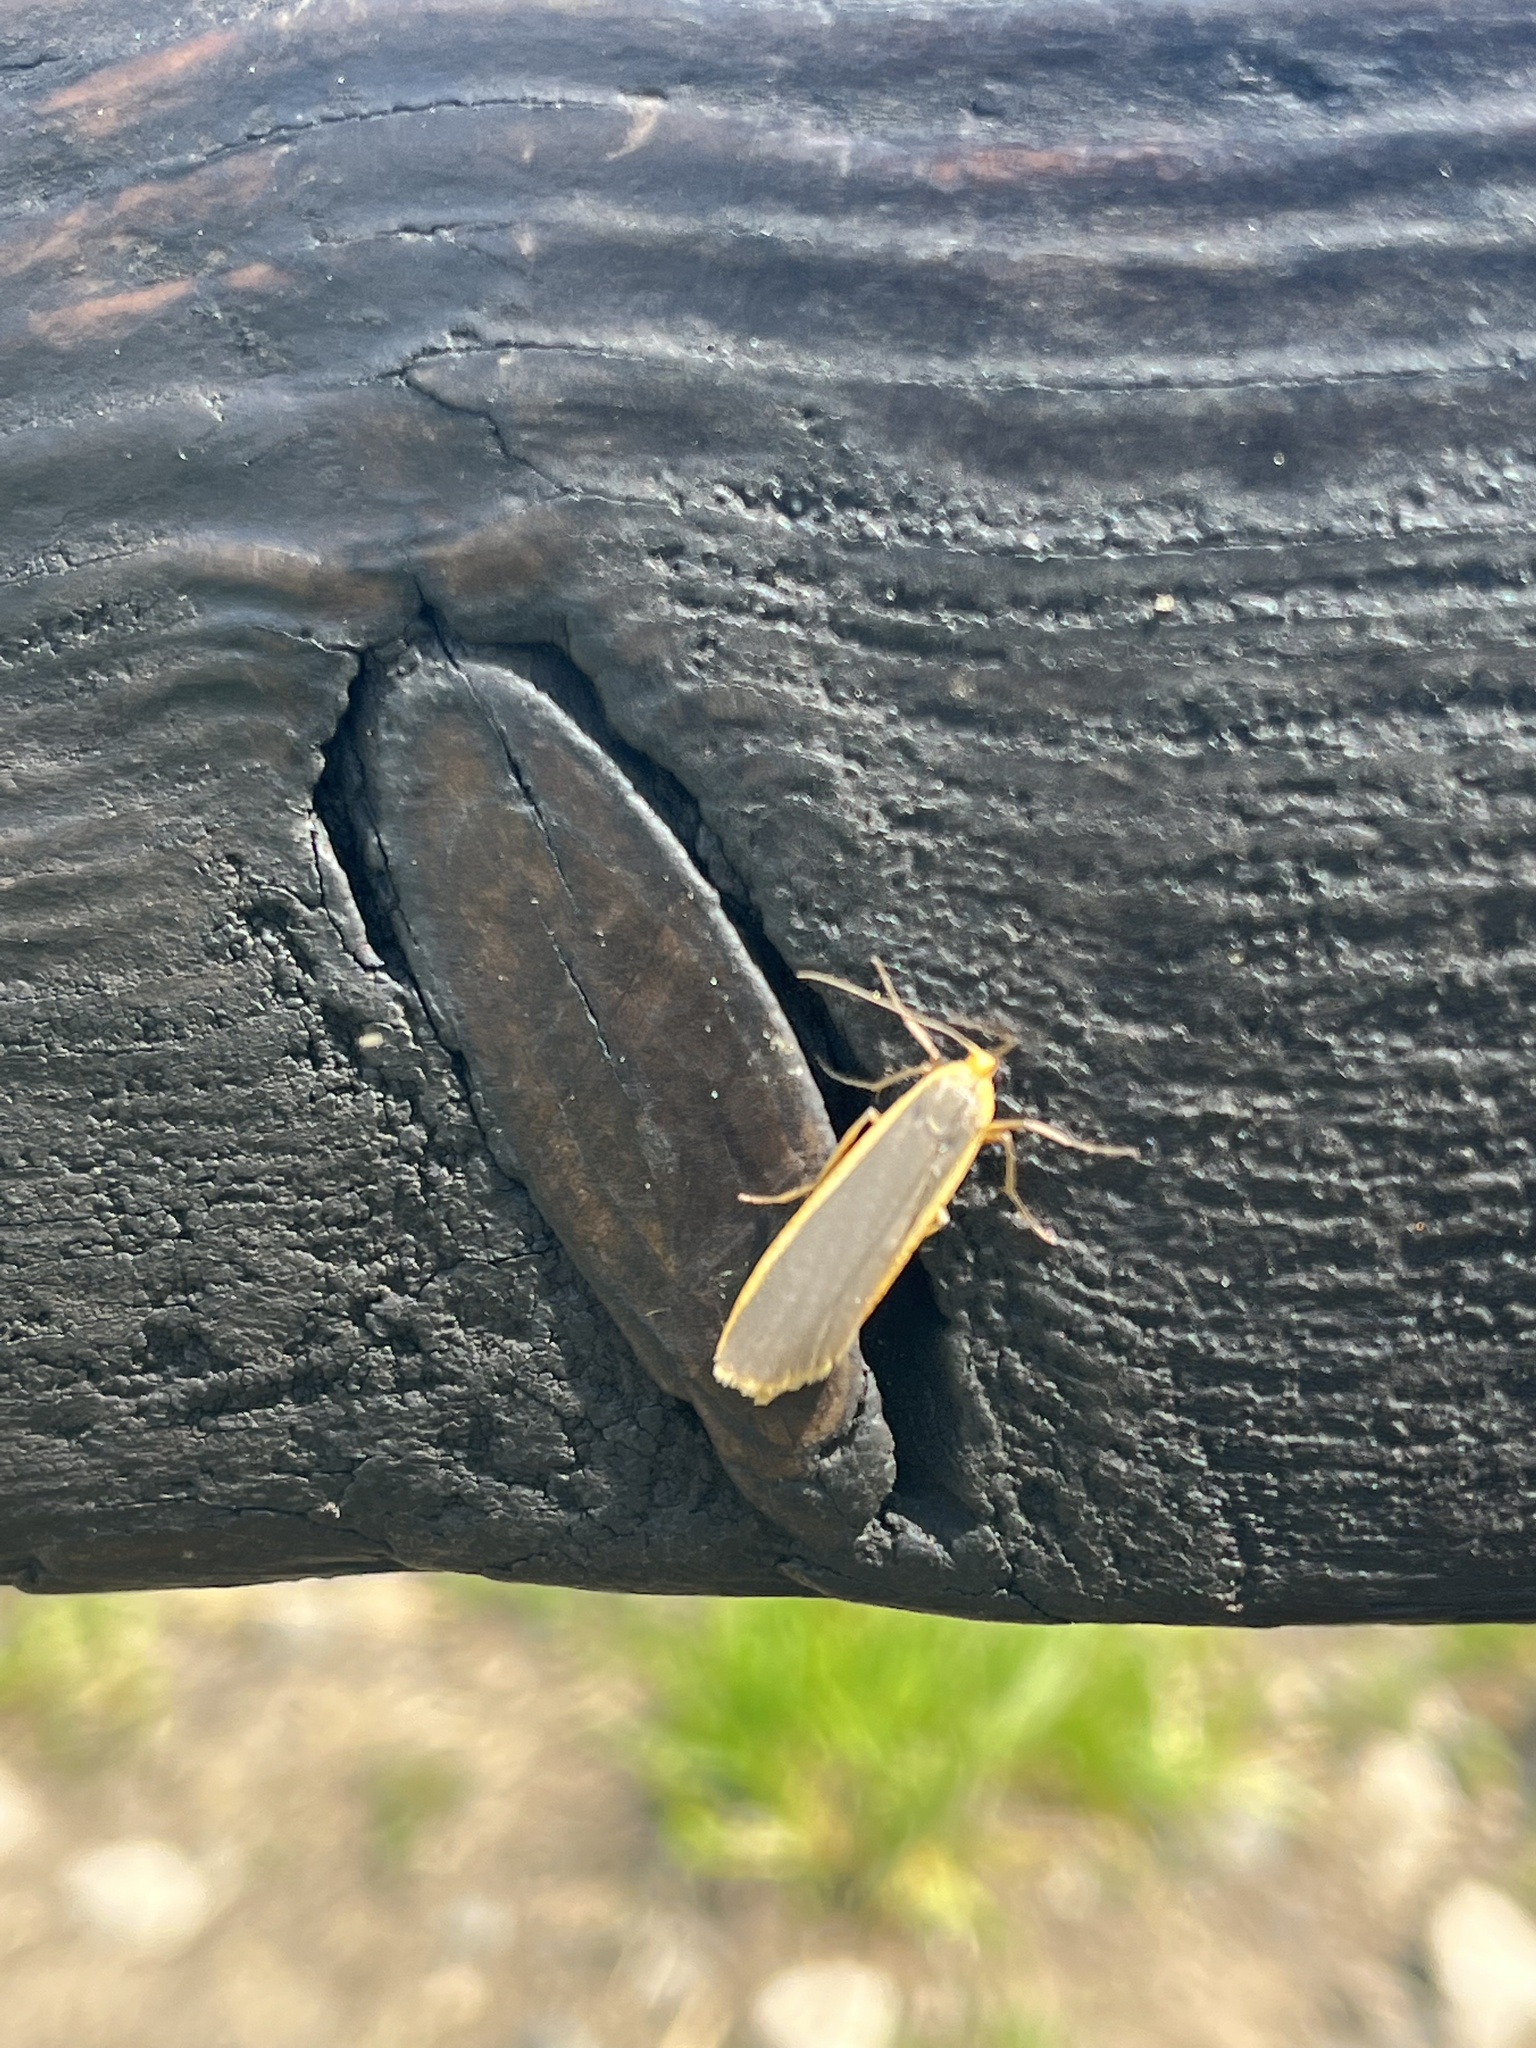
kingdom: Animalia
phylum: Arthropoda
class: Insecta
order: Lepidoptera
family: Erebidae
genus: Nyea
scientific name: Nyea lurideola
